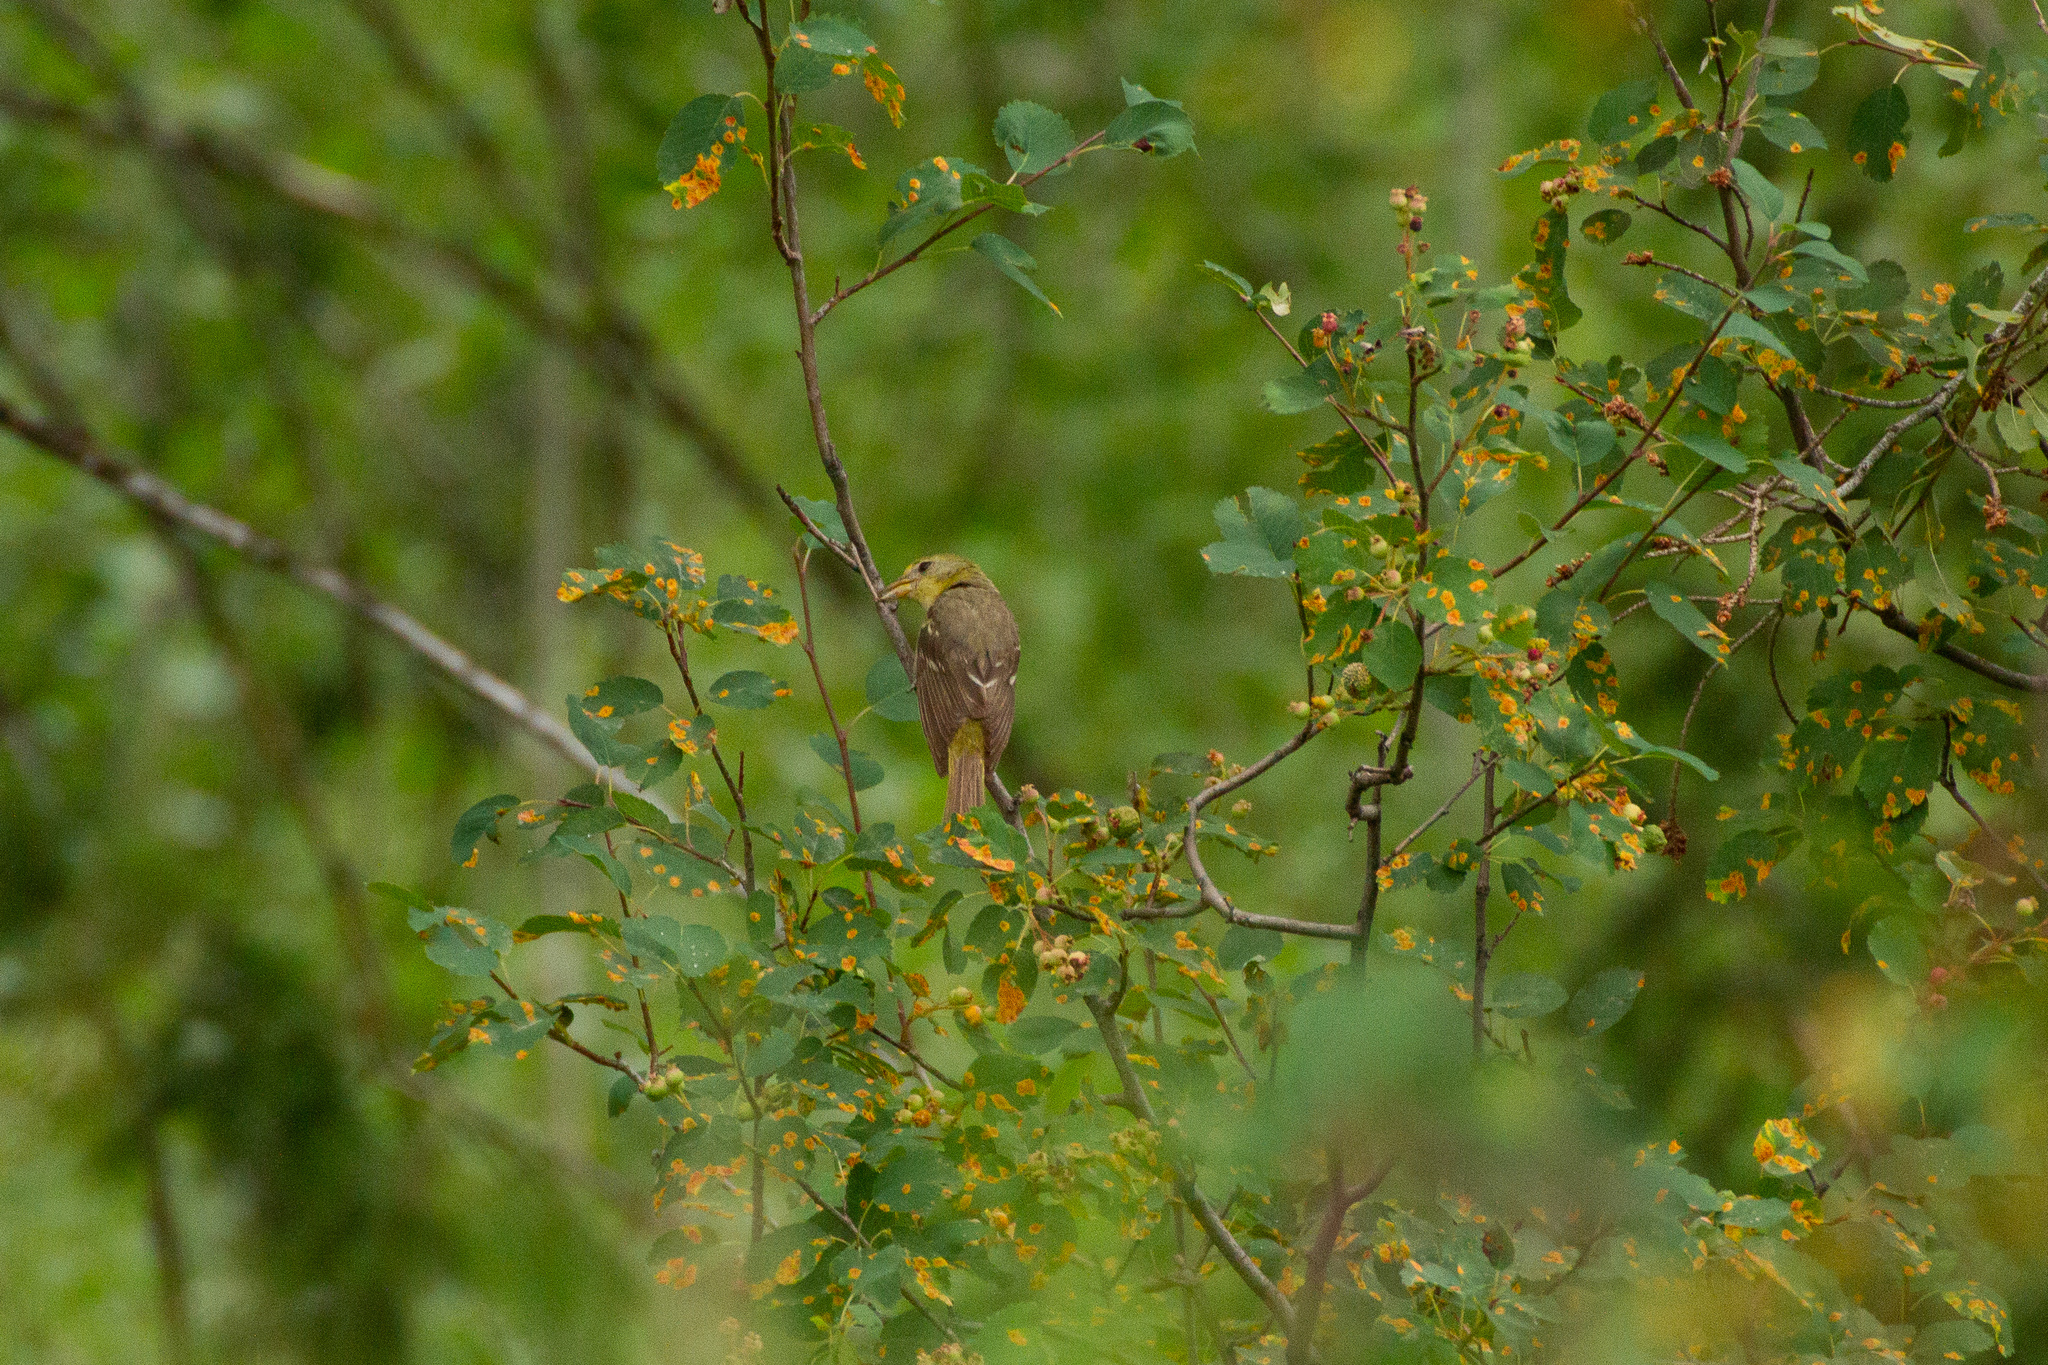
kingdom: Animalia
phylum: Chordata
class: Aves
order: Passeriformes
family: Cardinalidae
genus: Piranga
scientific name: Piranga ludoviciana
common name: Western tanager
